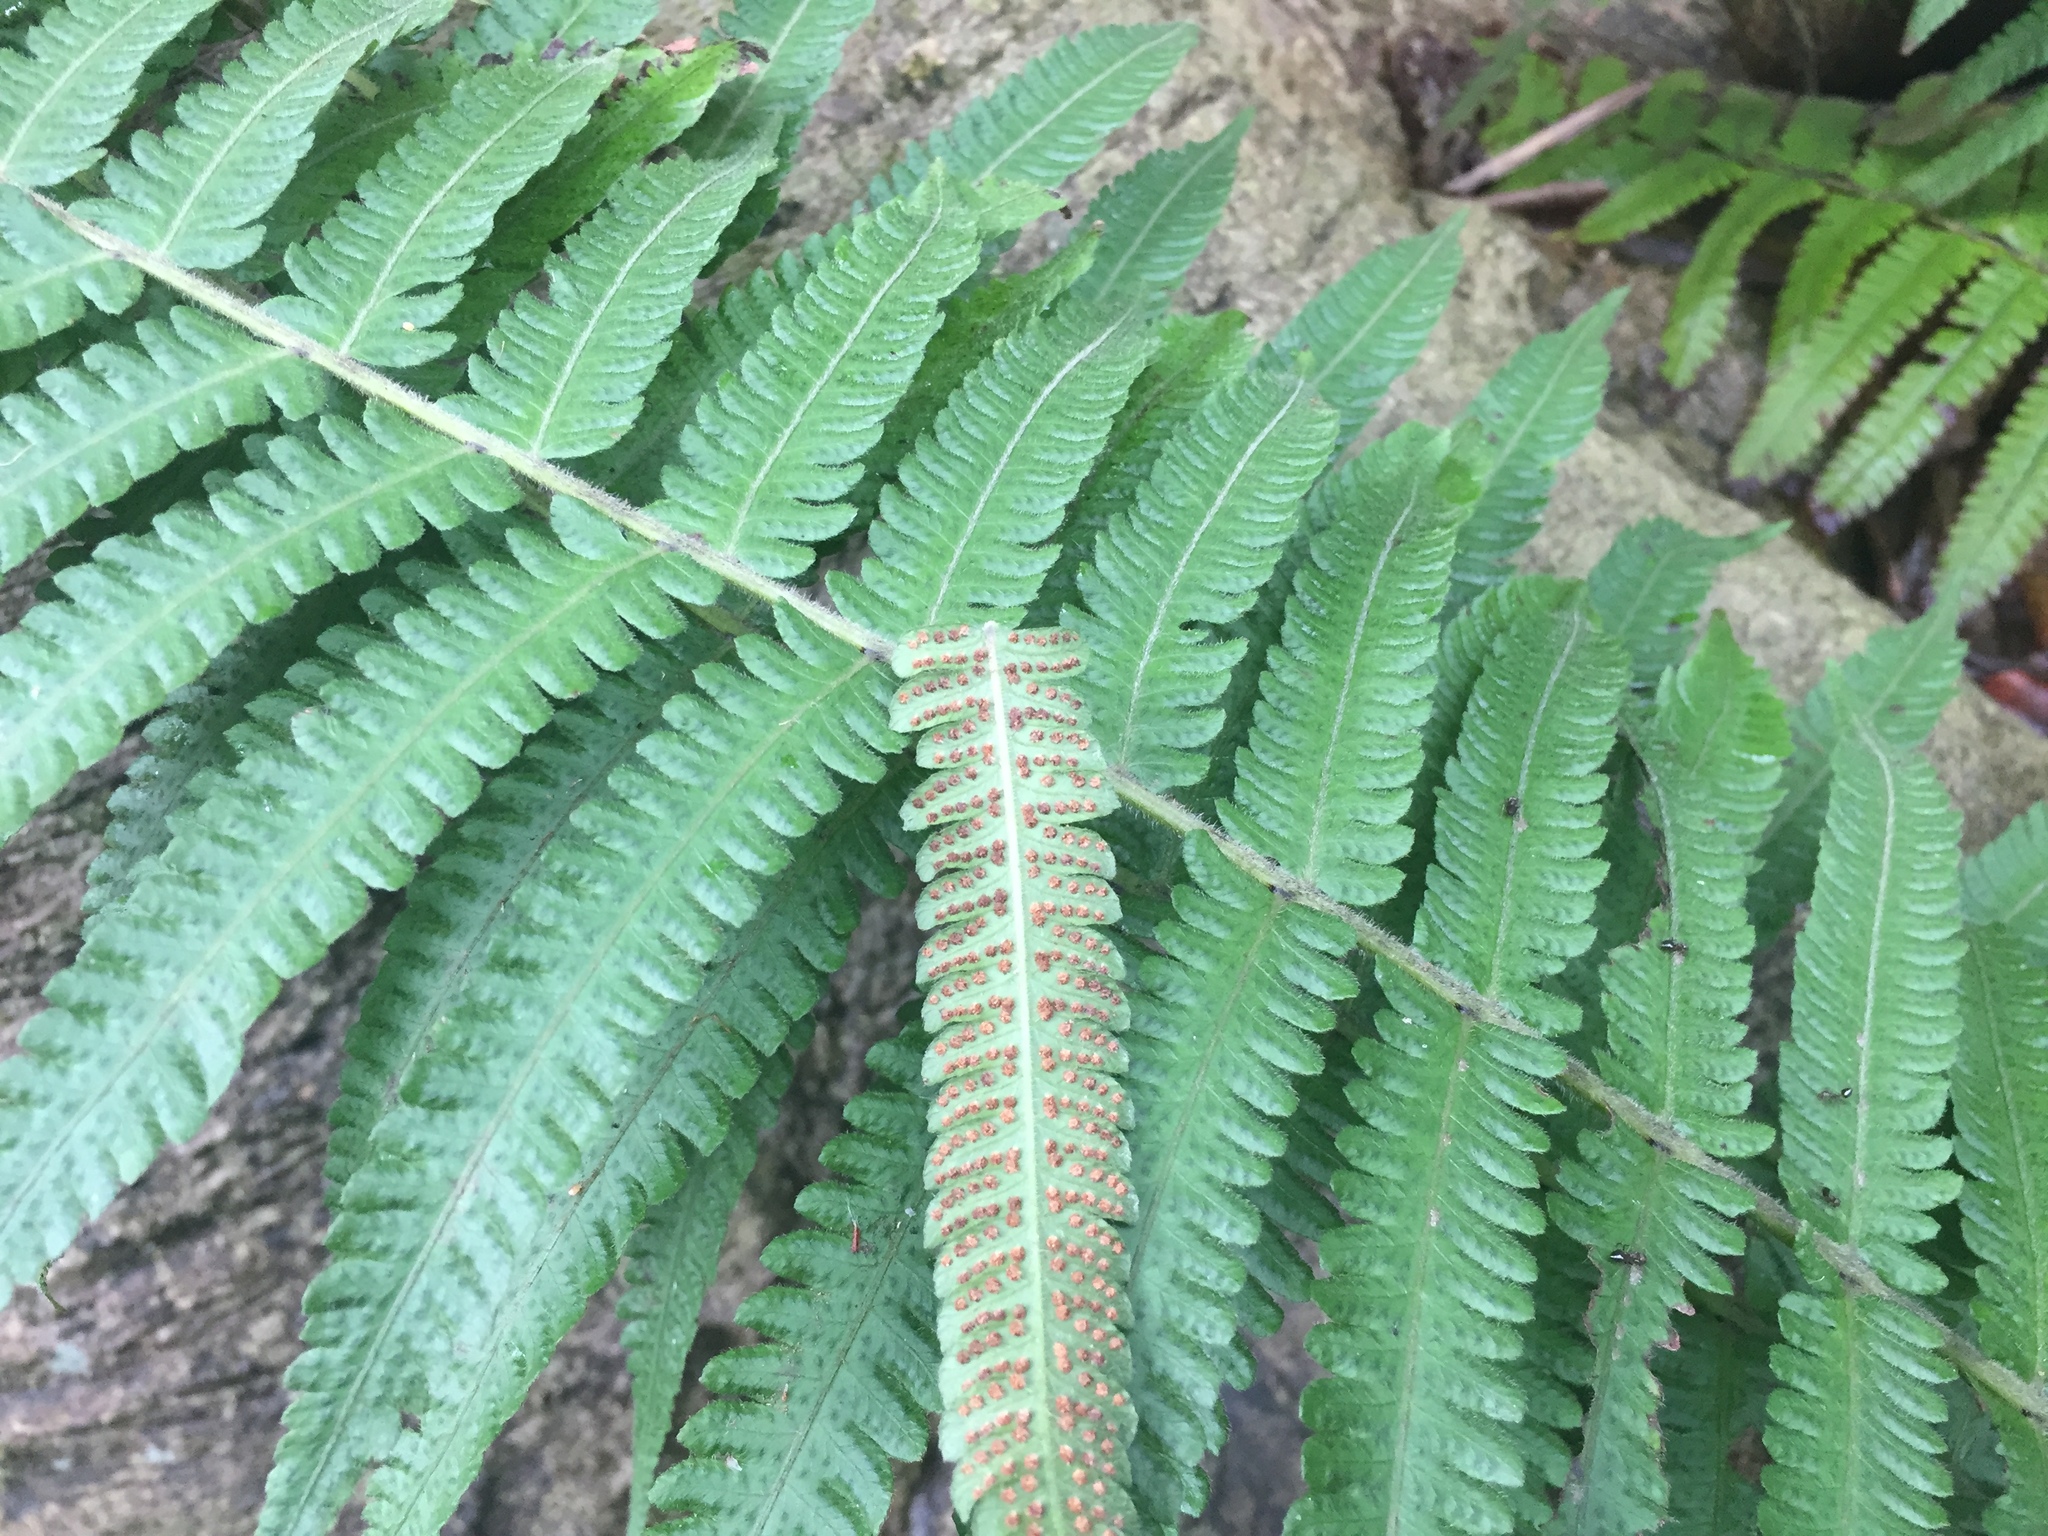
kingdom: Plantae
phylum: Tracheophyta
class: Polypodiopsida
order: Polypodiales
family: Thelypteridaceae
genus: Christella
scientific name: Christella parasitica
